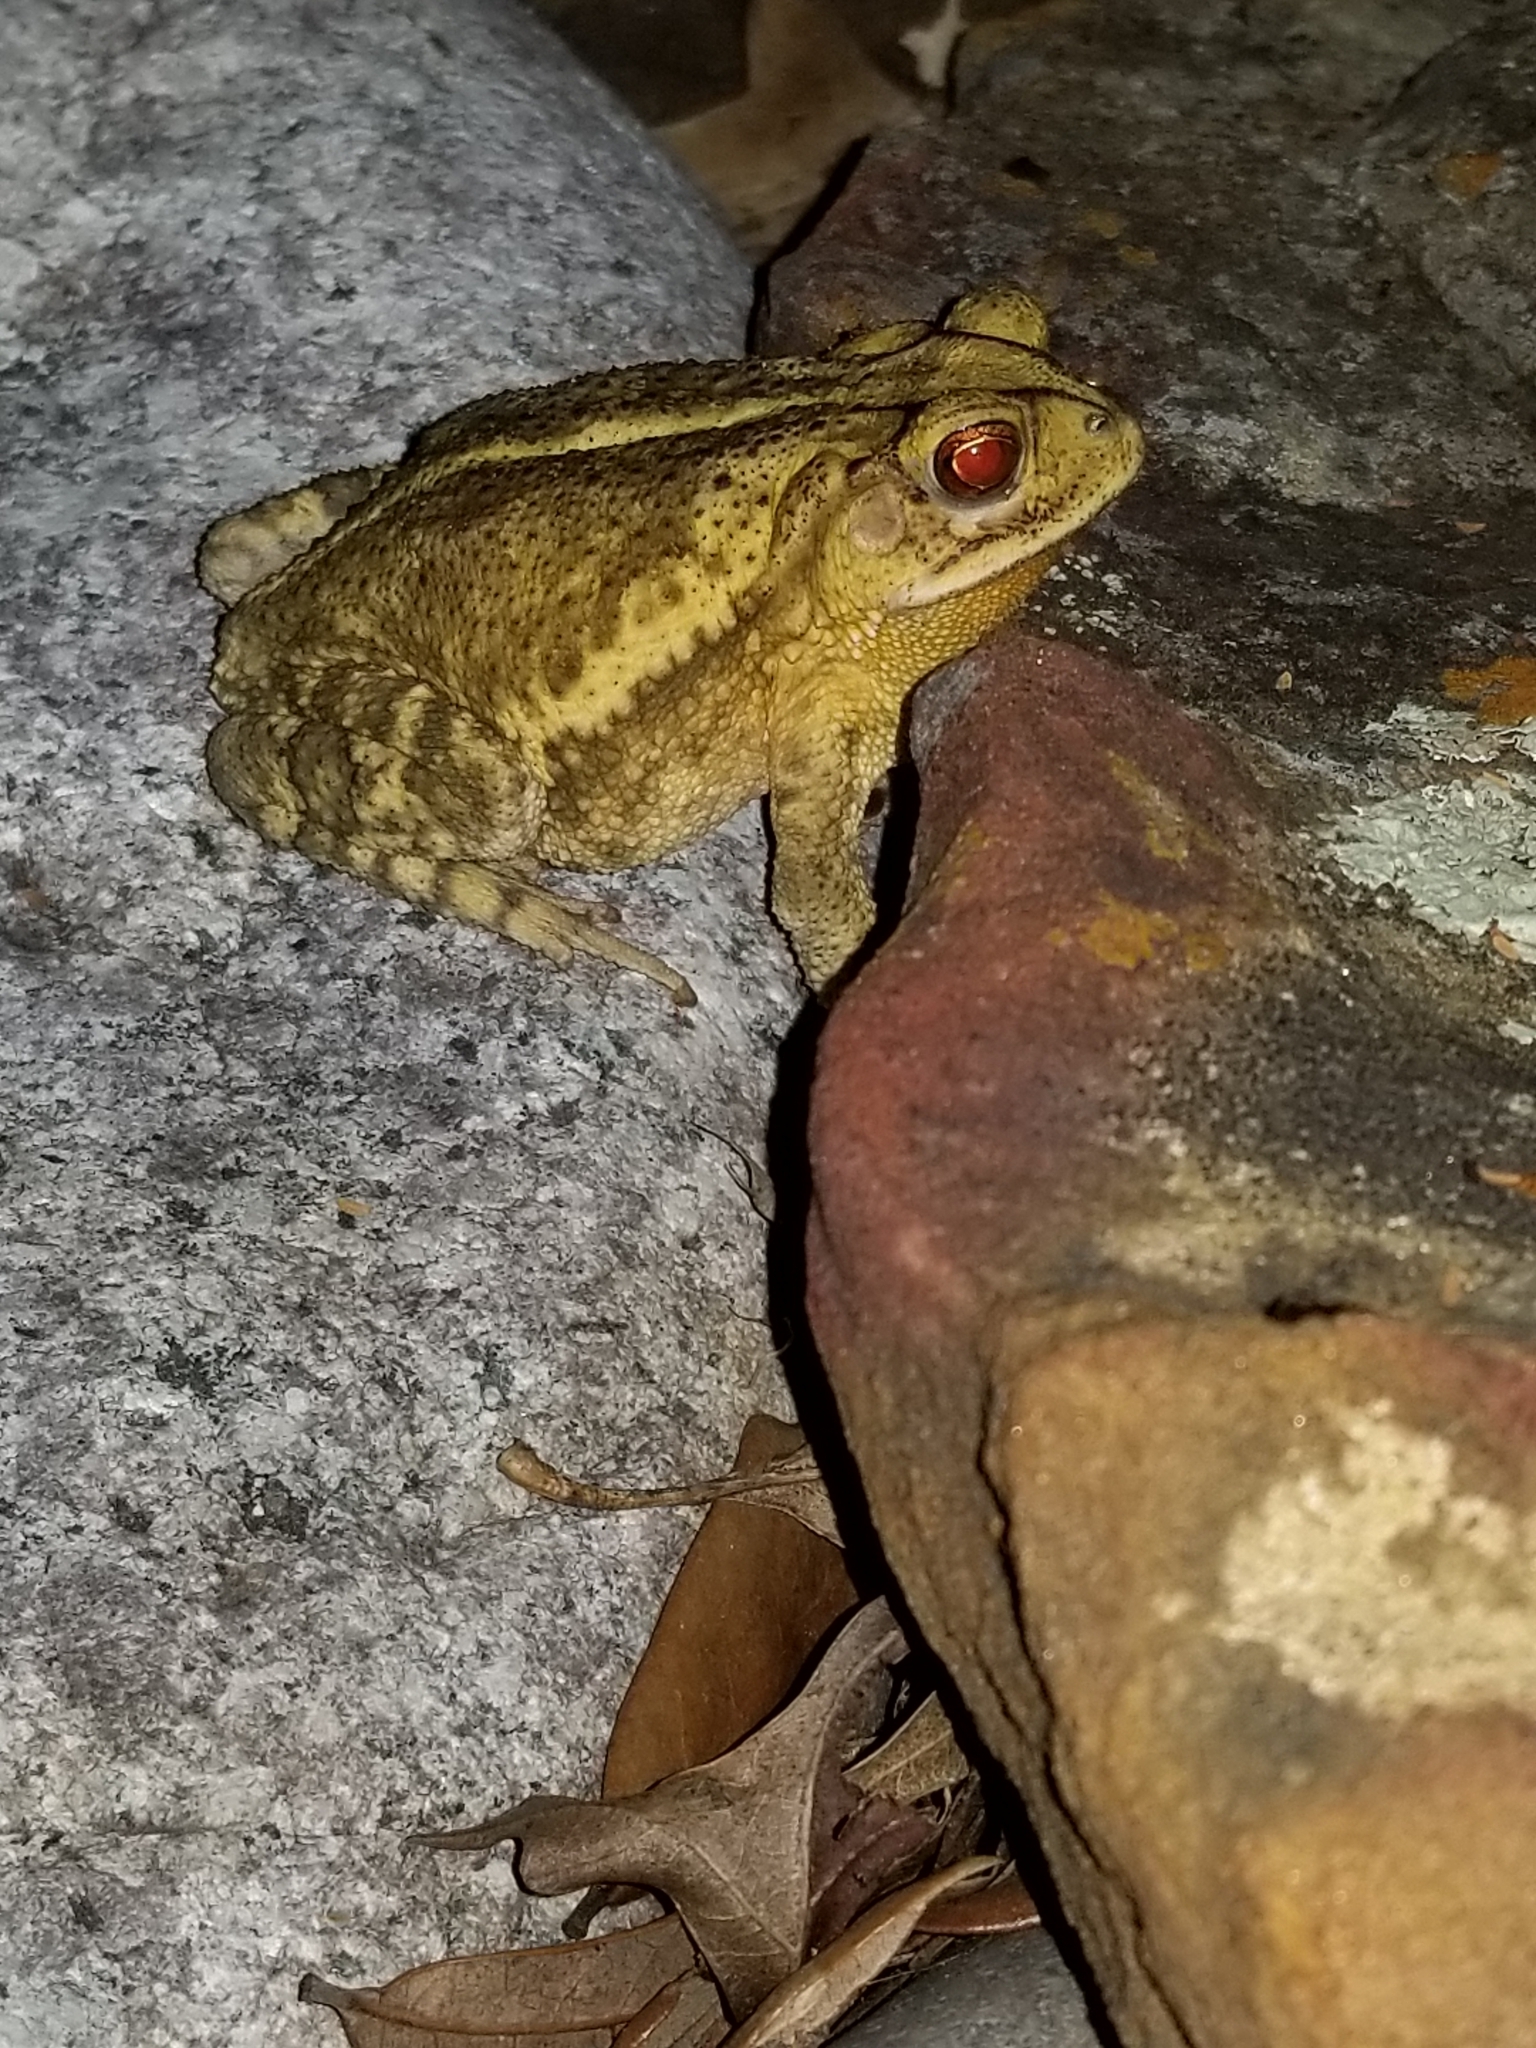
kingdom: Animalia
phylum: Chordata
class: Amphibia
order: Anura
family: Bufonidae
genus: Incilius
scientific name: Incilius nebulifer
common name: Gulf coast toad
